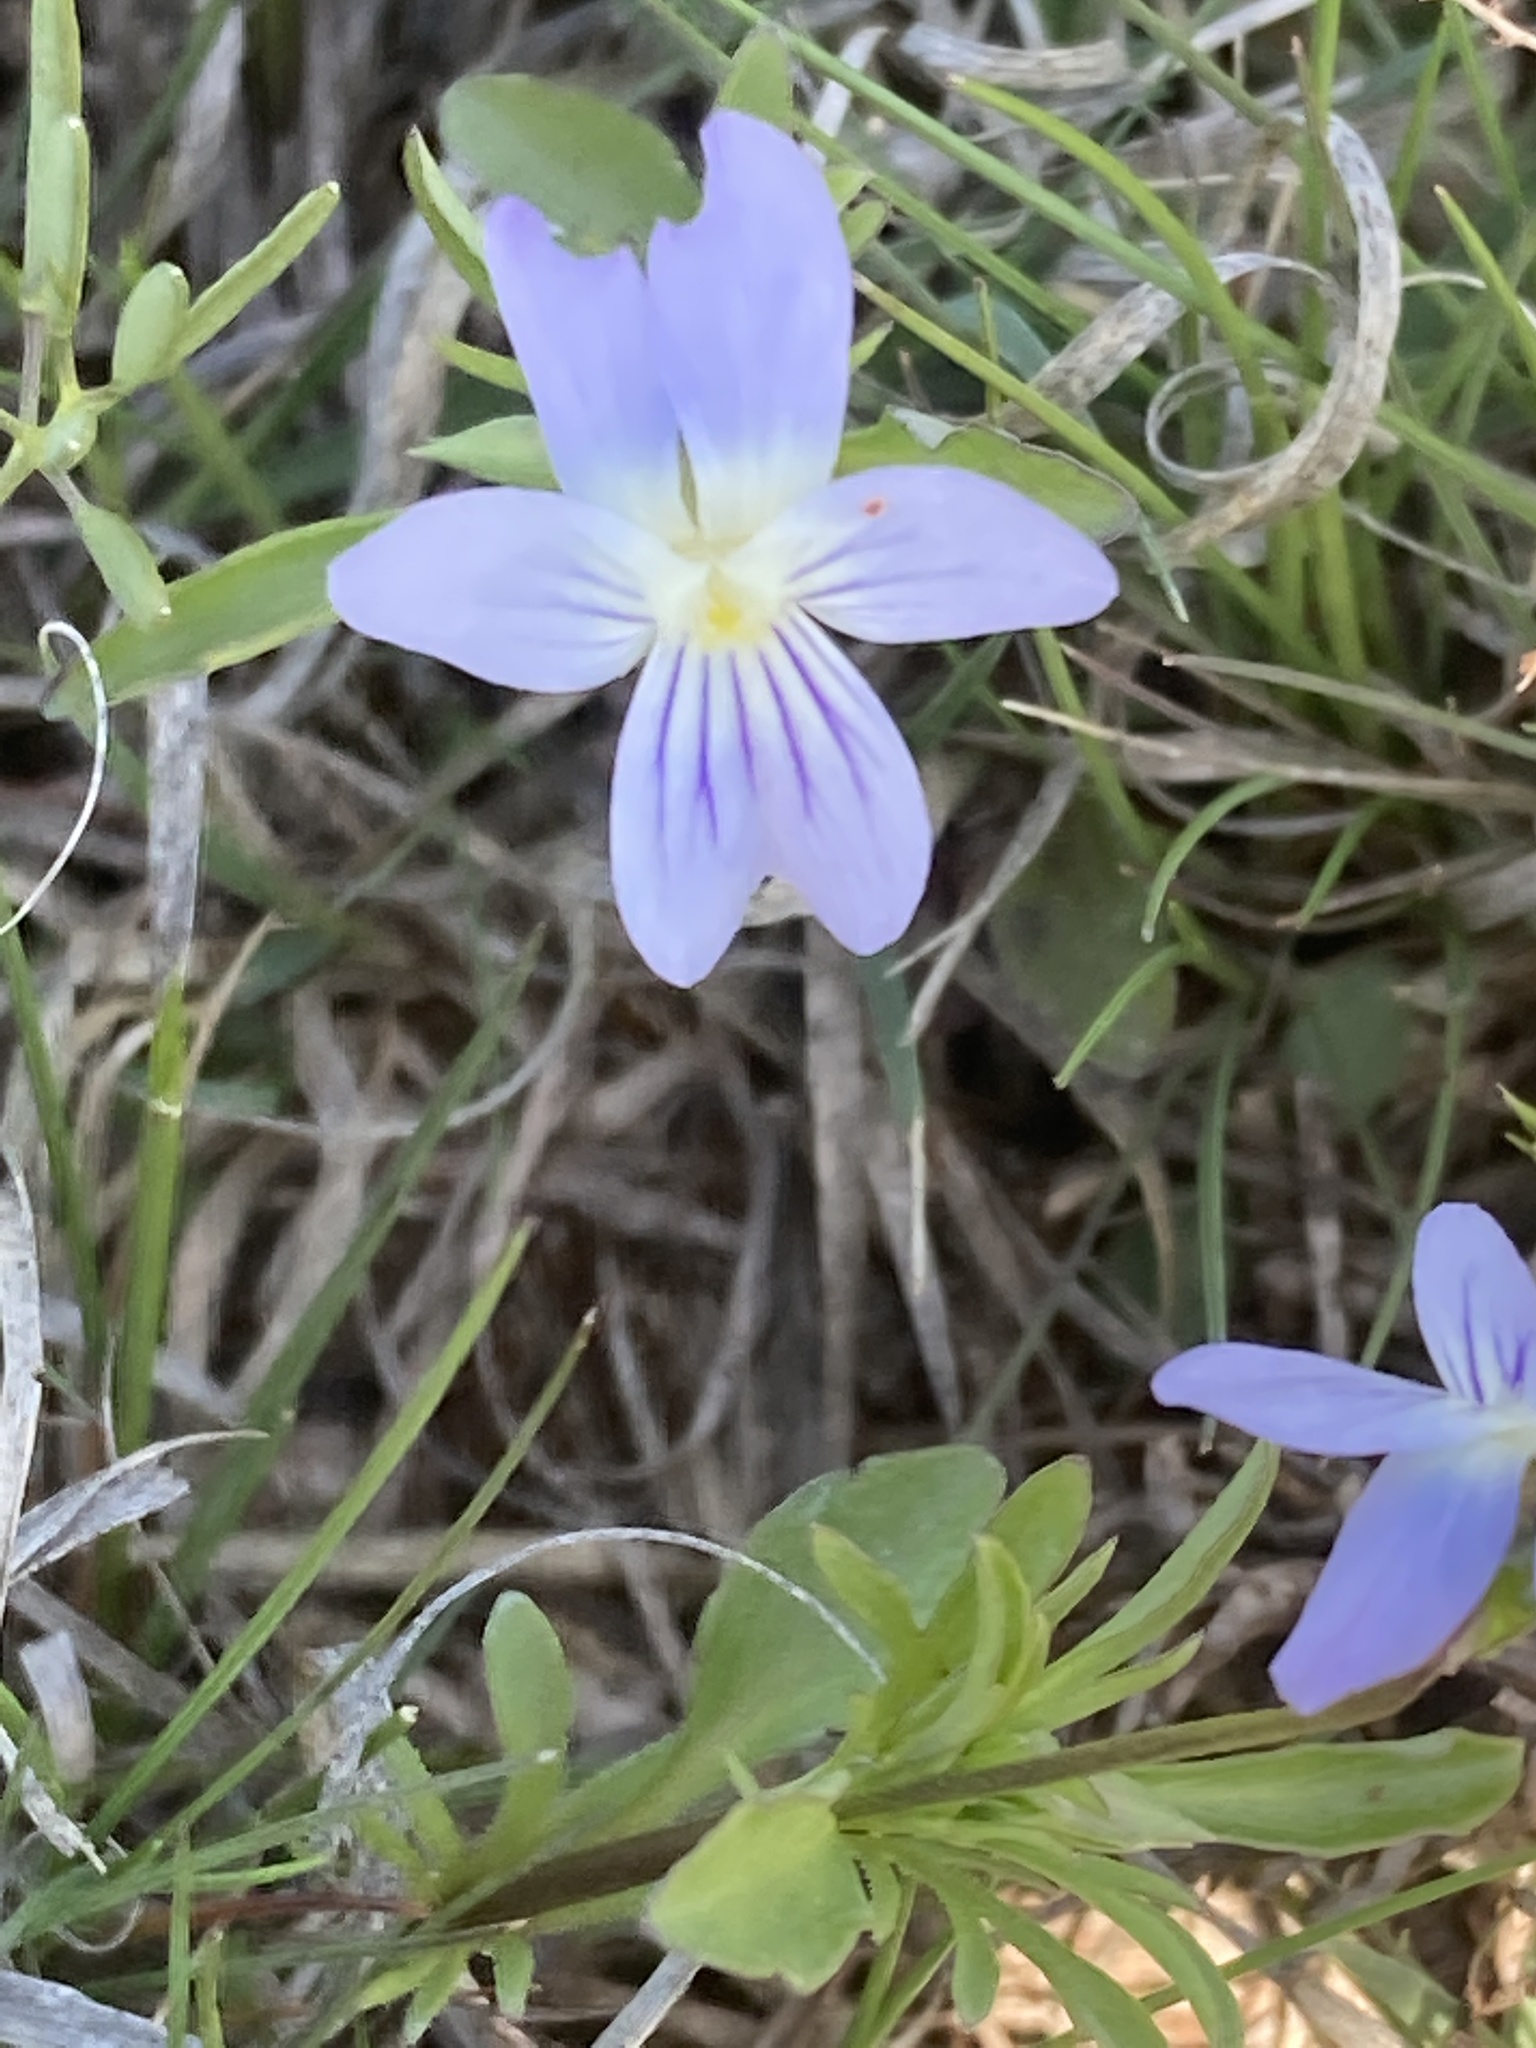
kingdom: Plantae
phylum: Tracheophyta
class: Magnoliopsida
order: Malpighiales
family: Violaceae
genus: Viola
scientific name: Viola rafinesquei
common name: American field pansy
